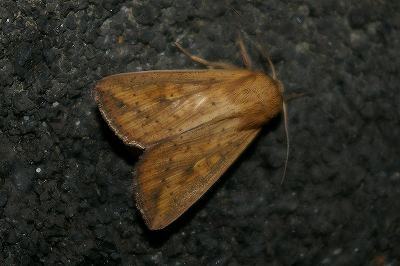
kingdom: Animalia
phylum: Arthropoda
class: Insecta
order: Lepidoptera
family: Noctuidae
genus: Mythimna
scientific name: Mythimna formosana
